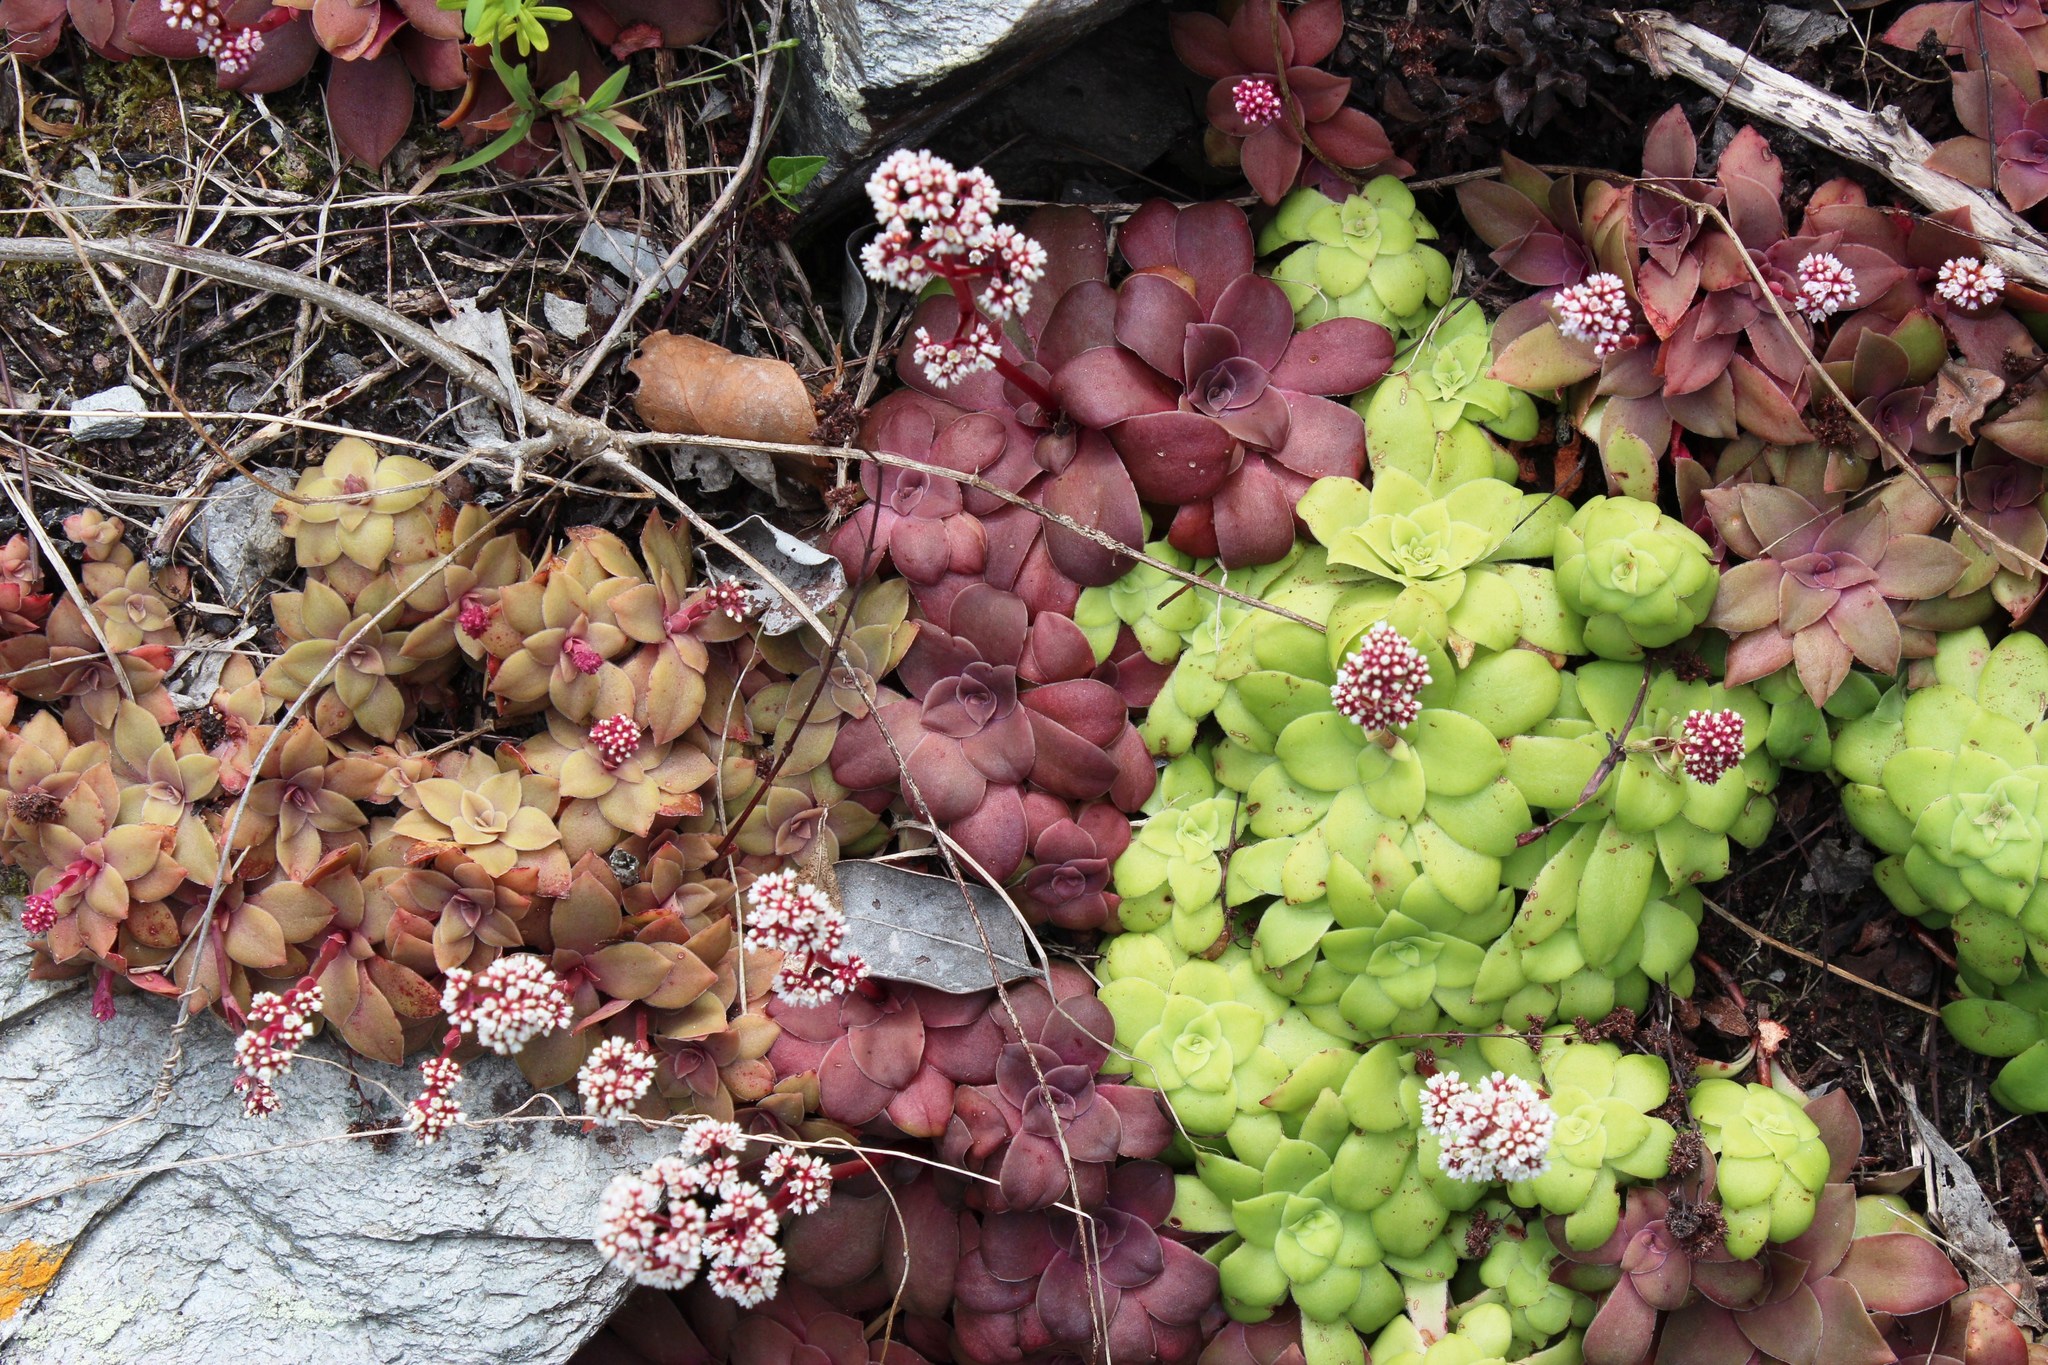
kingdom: Plantae
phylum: Tracheophyta
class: Magnoliopsida
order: Saxifragales
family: Crassulaceae
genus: Crassula
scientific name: Crassula orbicularis
